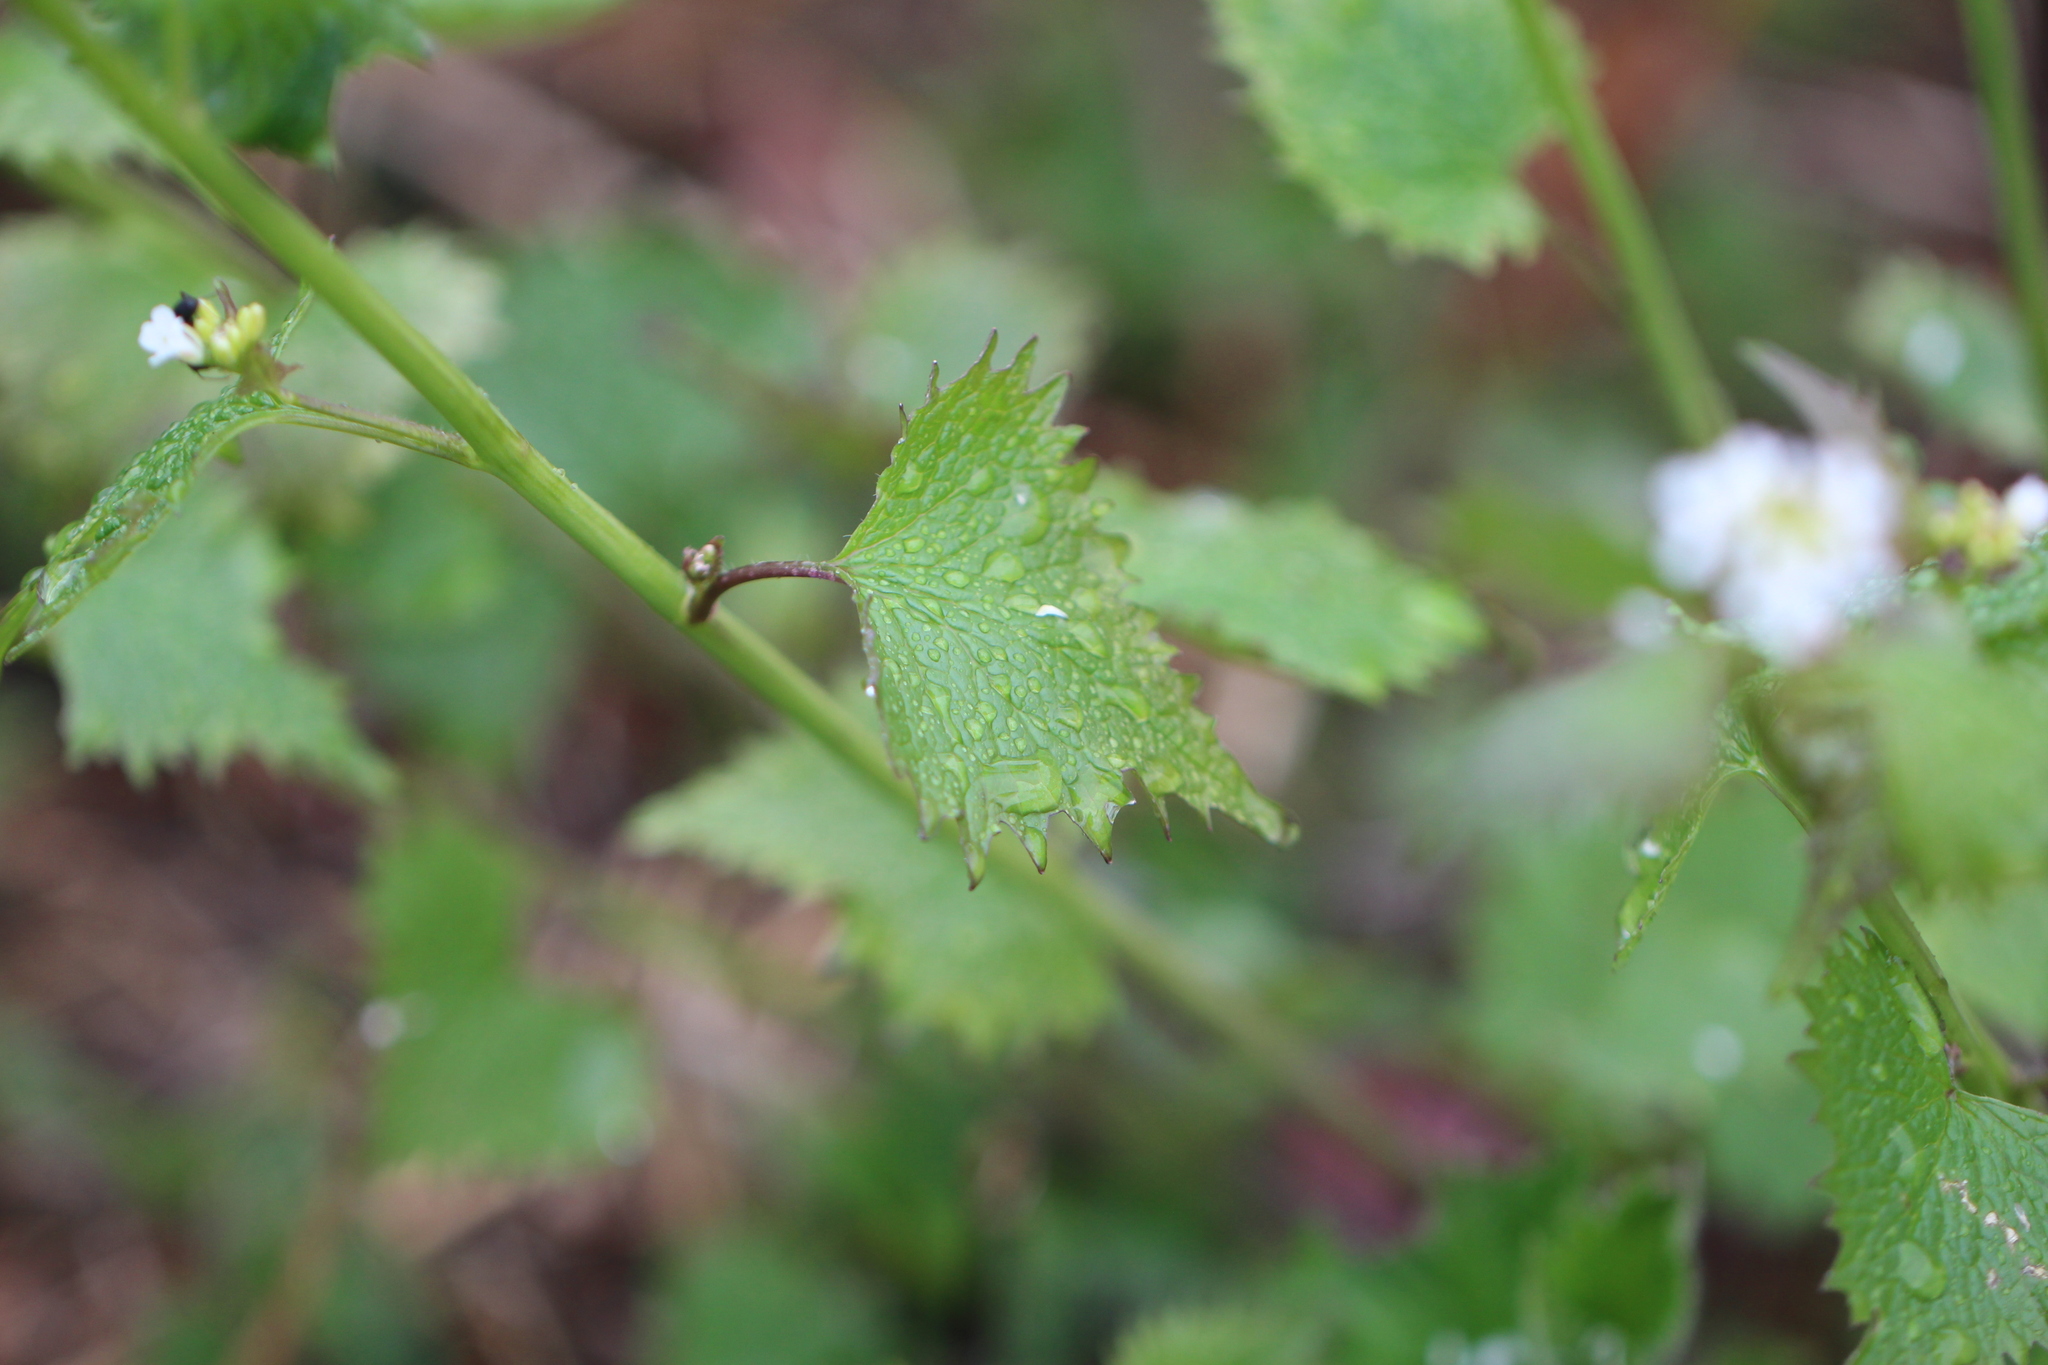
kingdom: Plantae
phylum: Tracheophyta
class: Magnoliopsida
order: Brassicales
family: Brassicaceae
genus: Alliaria
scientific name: Alliaria petiolata
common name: Garlic mustard
